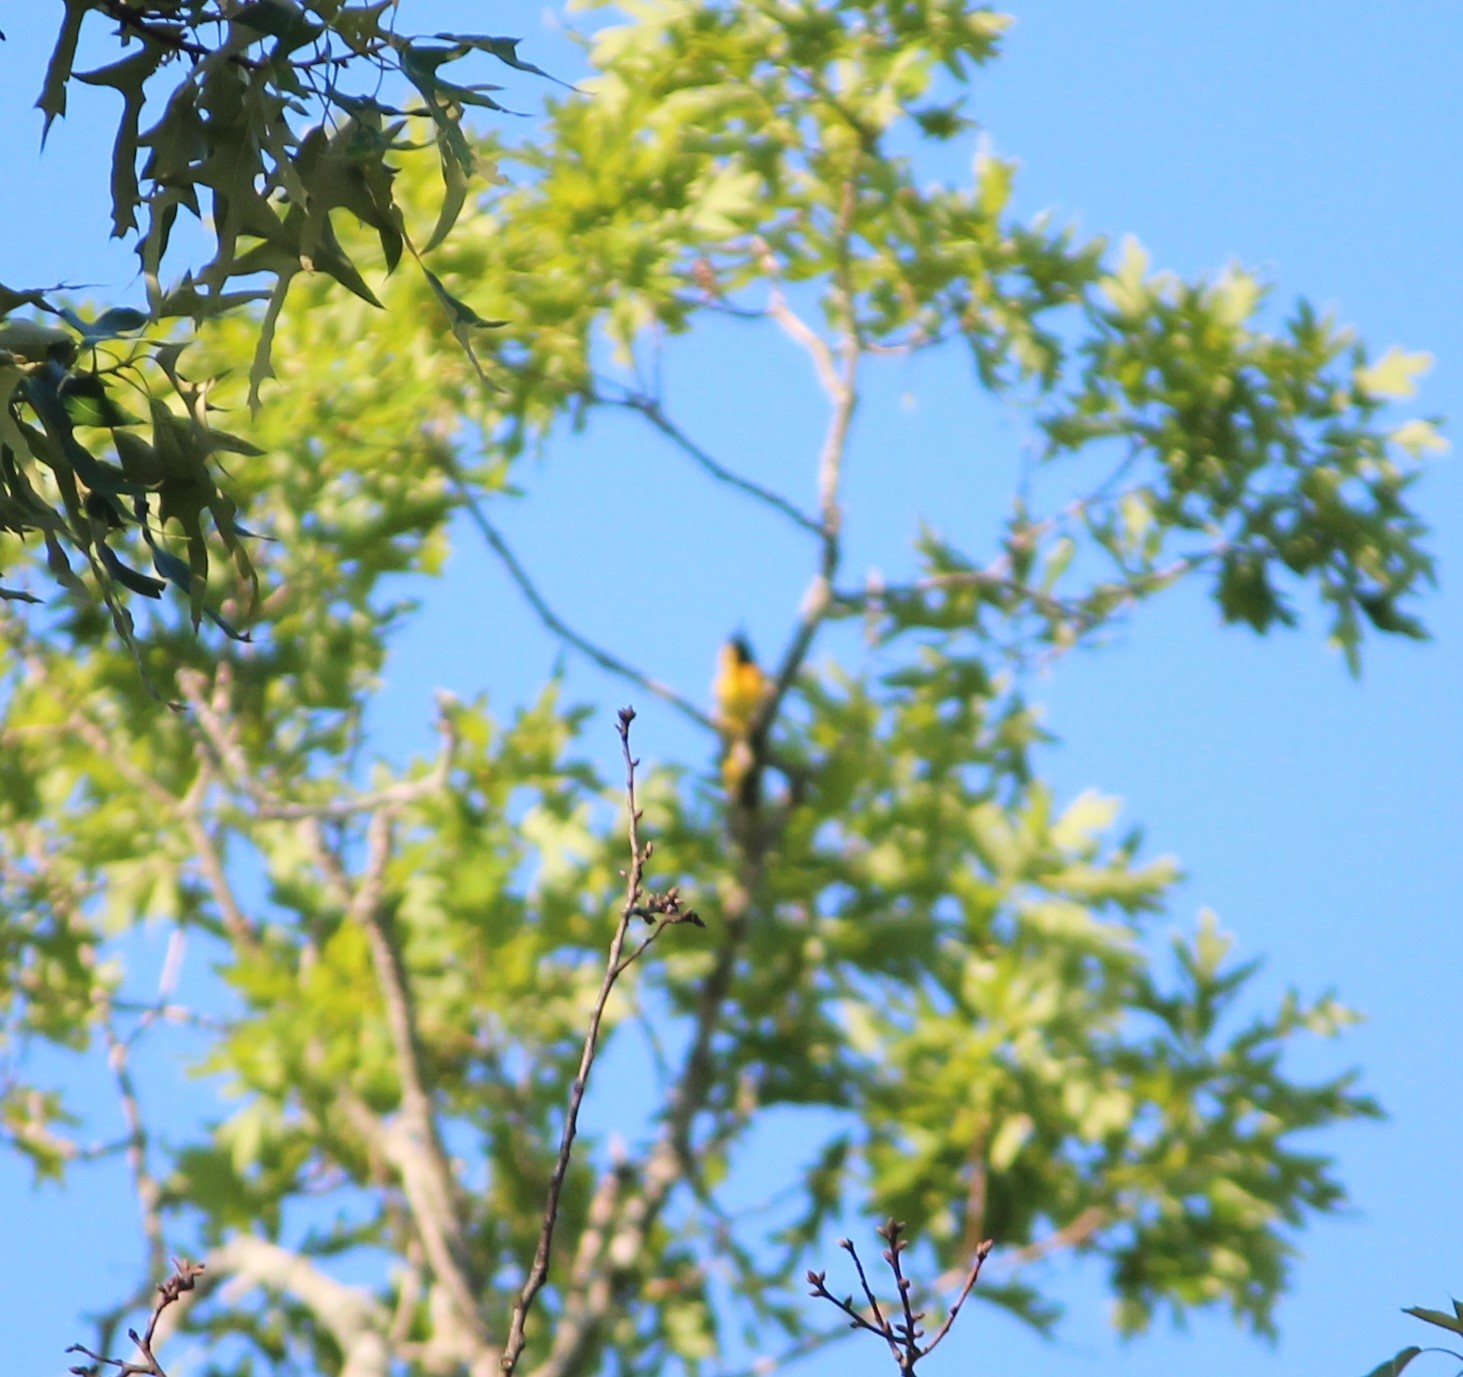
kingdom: Animalia
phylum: Chordata
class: Aves
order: Passeriformes
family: Icteridae
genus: Icterus
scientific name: Icterus spurius
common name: Orchard oriole
